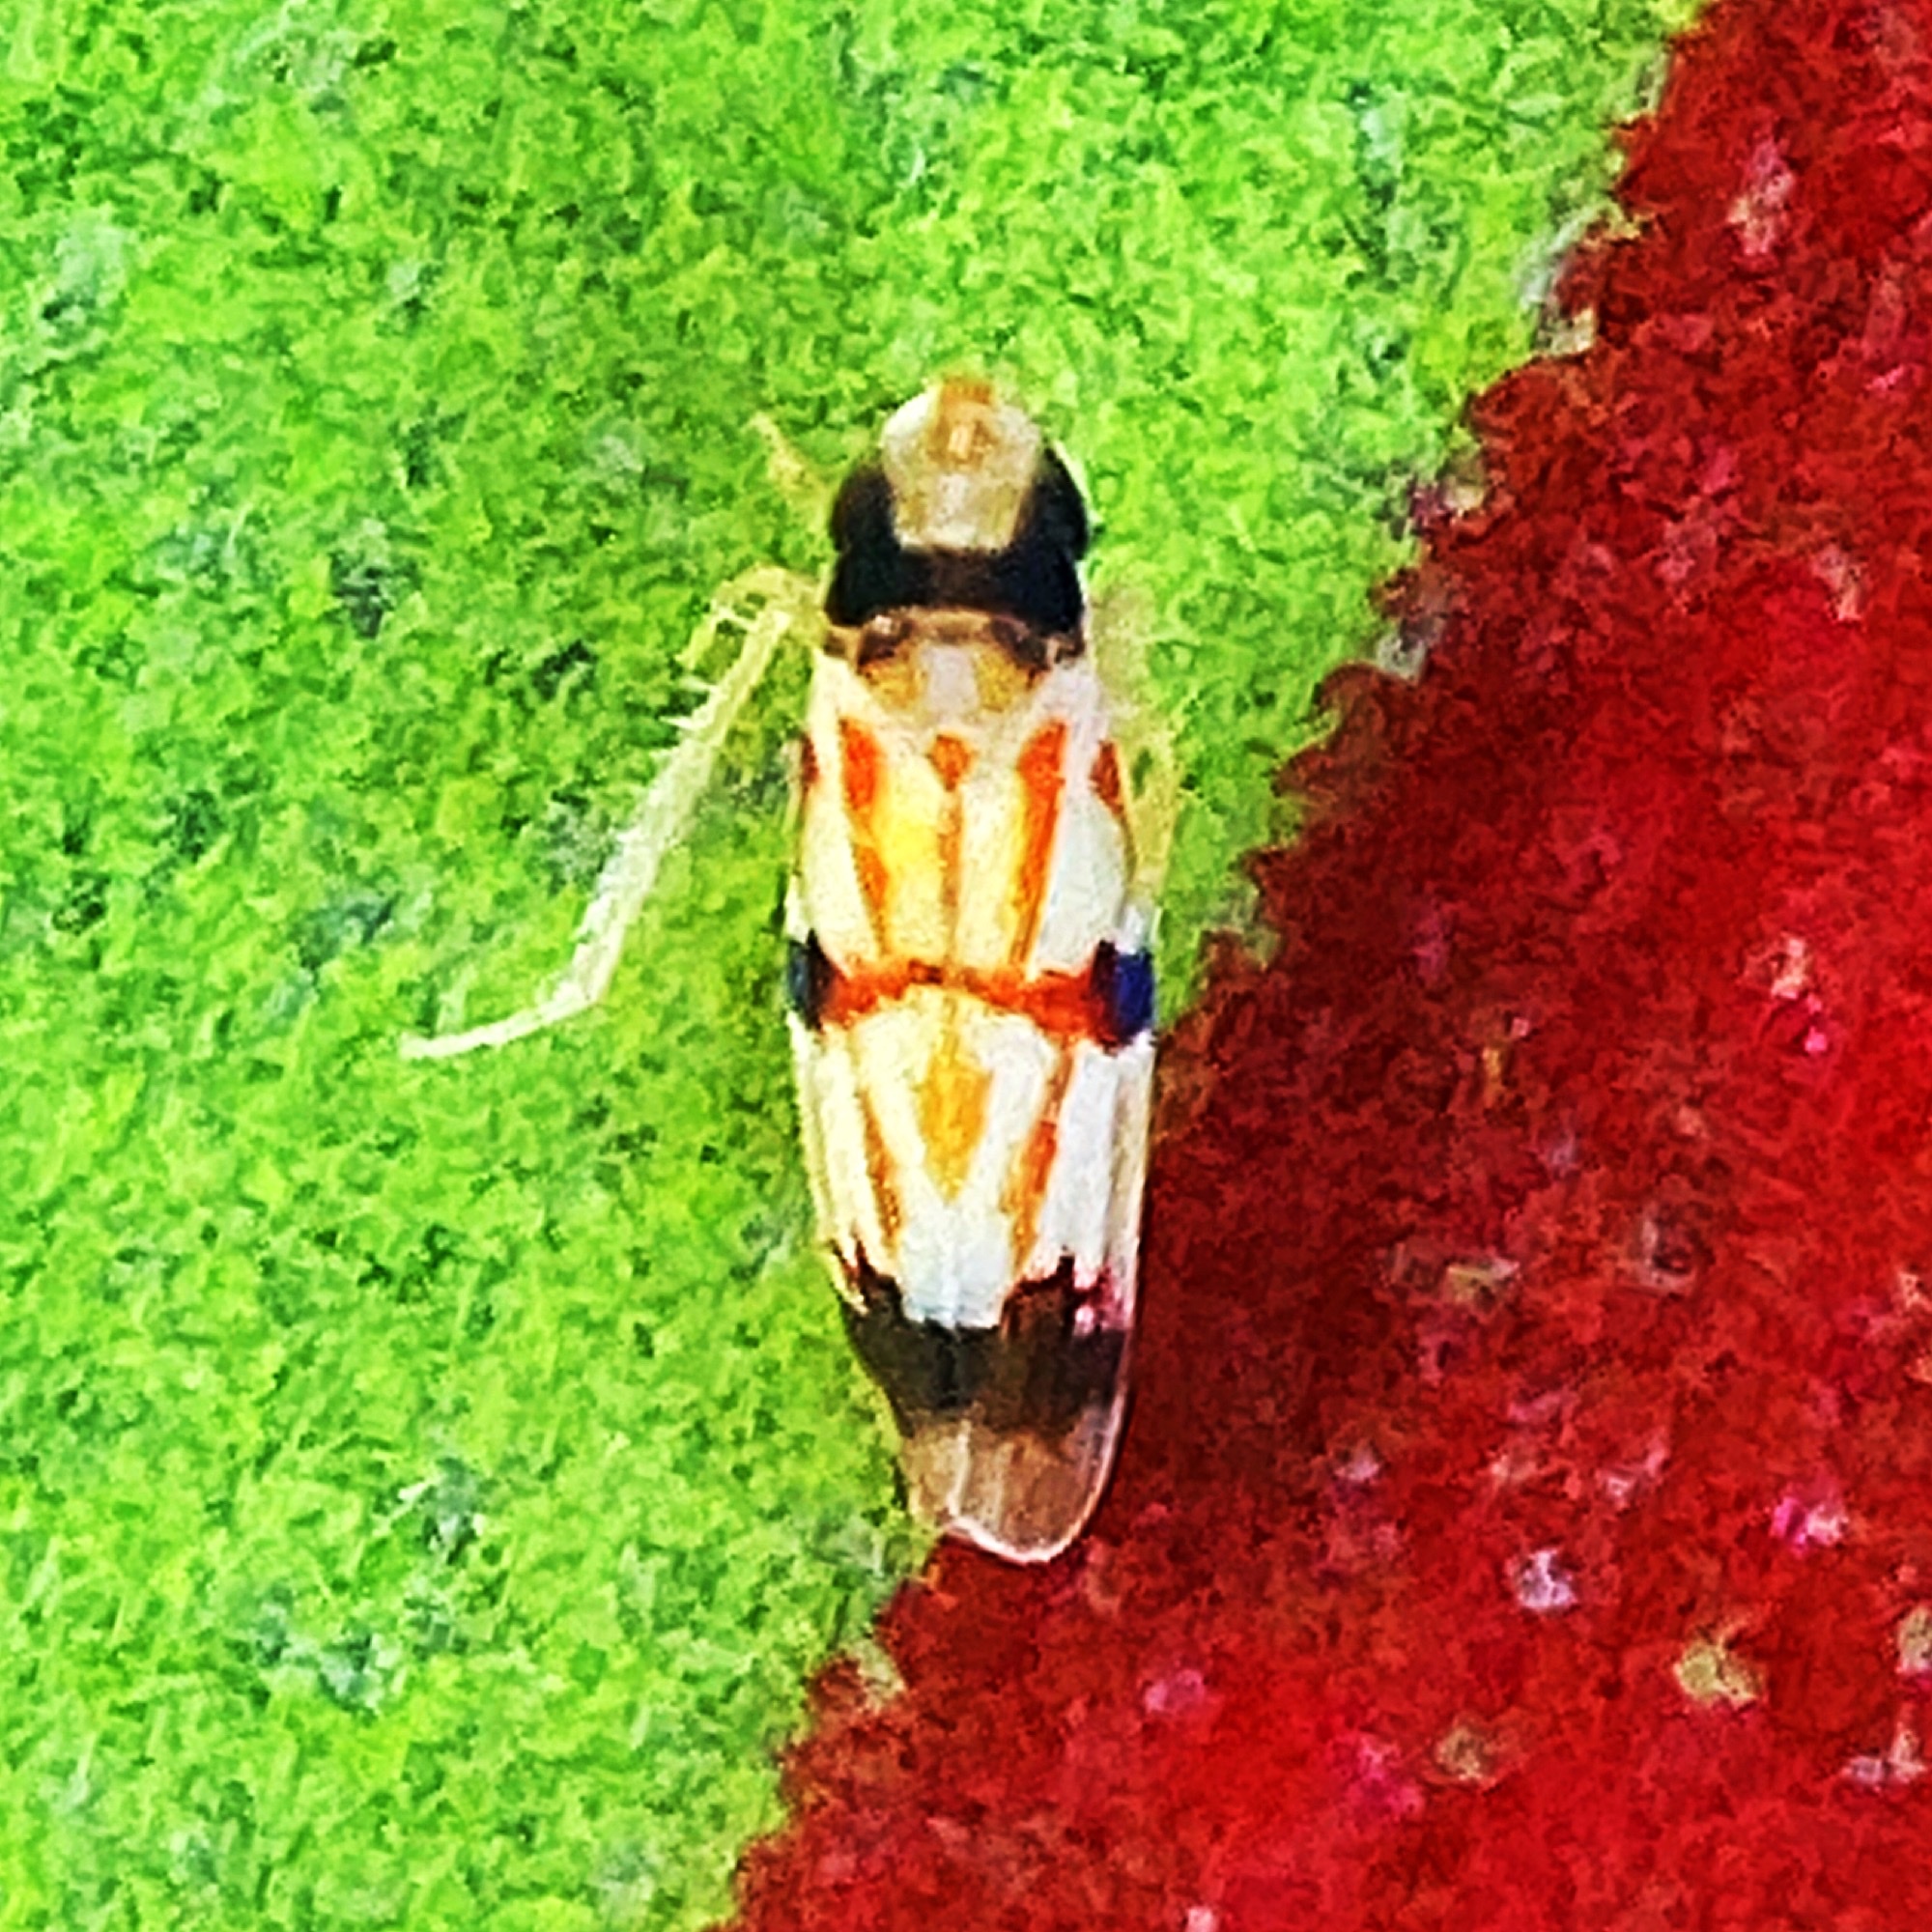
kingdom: Animalia
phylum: Arthropoda
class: Insecta
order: Hemiptera
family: Cicadellidae
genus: Erythroneura
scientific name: Erythroneura cymbium
